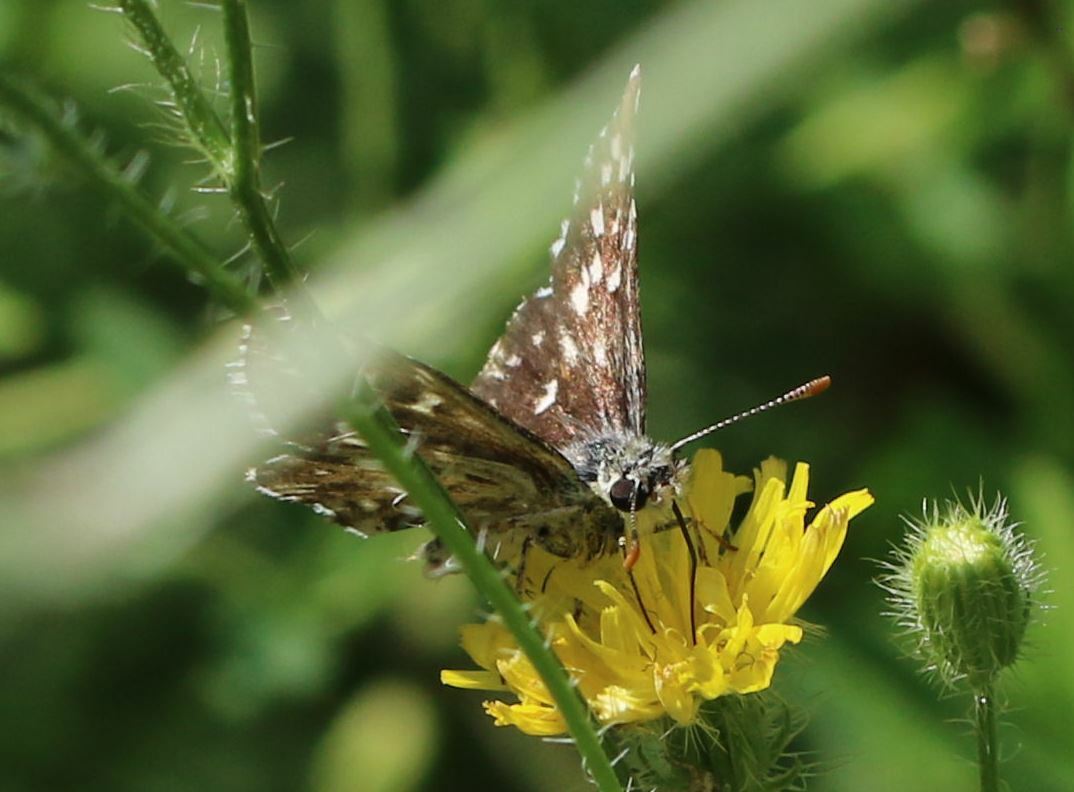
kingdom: Animalia
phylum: Arthropoda
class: Insecta
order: Lepidoptera
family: Hesperiidae
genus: Pyrgus
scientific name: Pyrgus malvoides
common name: Southern grizzled skipper
